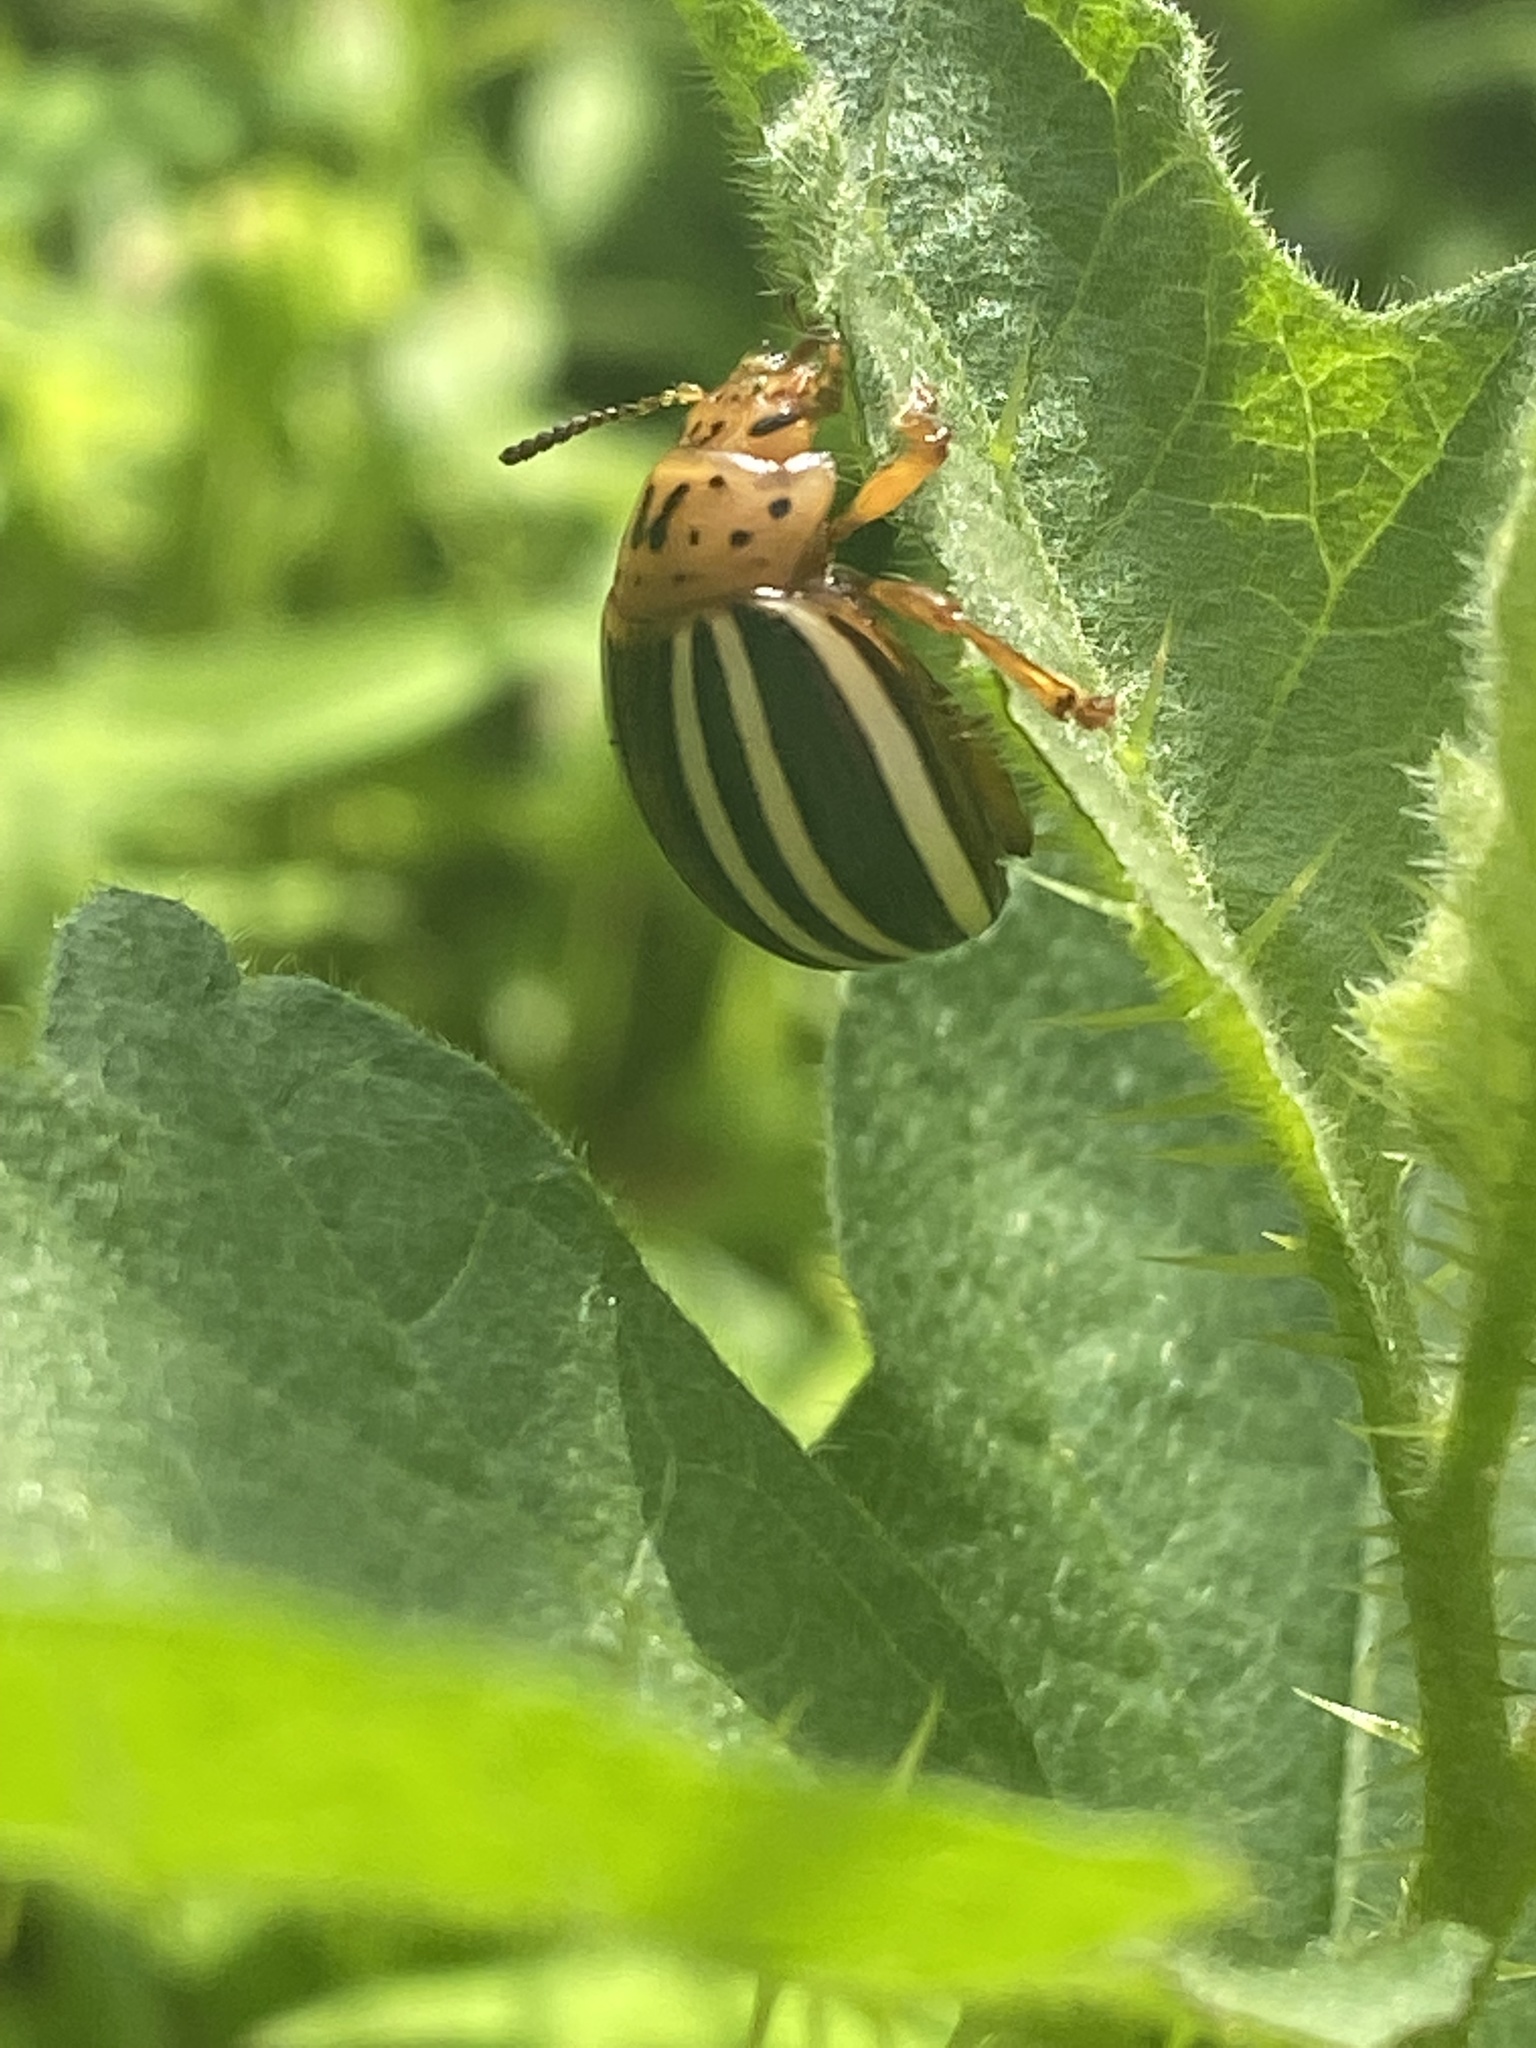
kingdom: Animalia
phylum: Arthropoda
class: Insecta
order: Coleoptera
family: Chrysomelidae
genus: Leptinotarsa
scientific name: Leptinotarsa juncta
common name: False potato beetle
